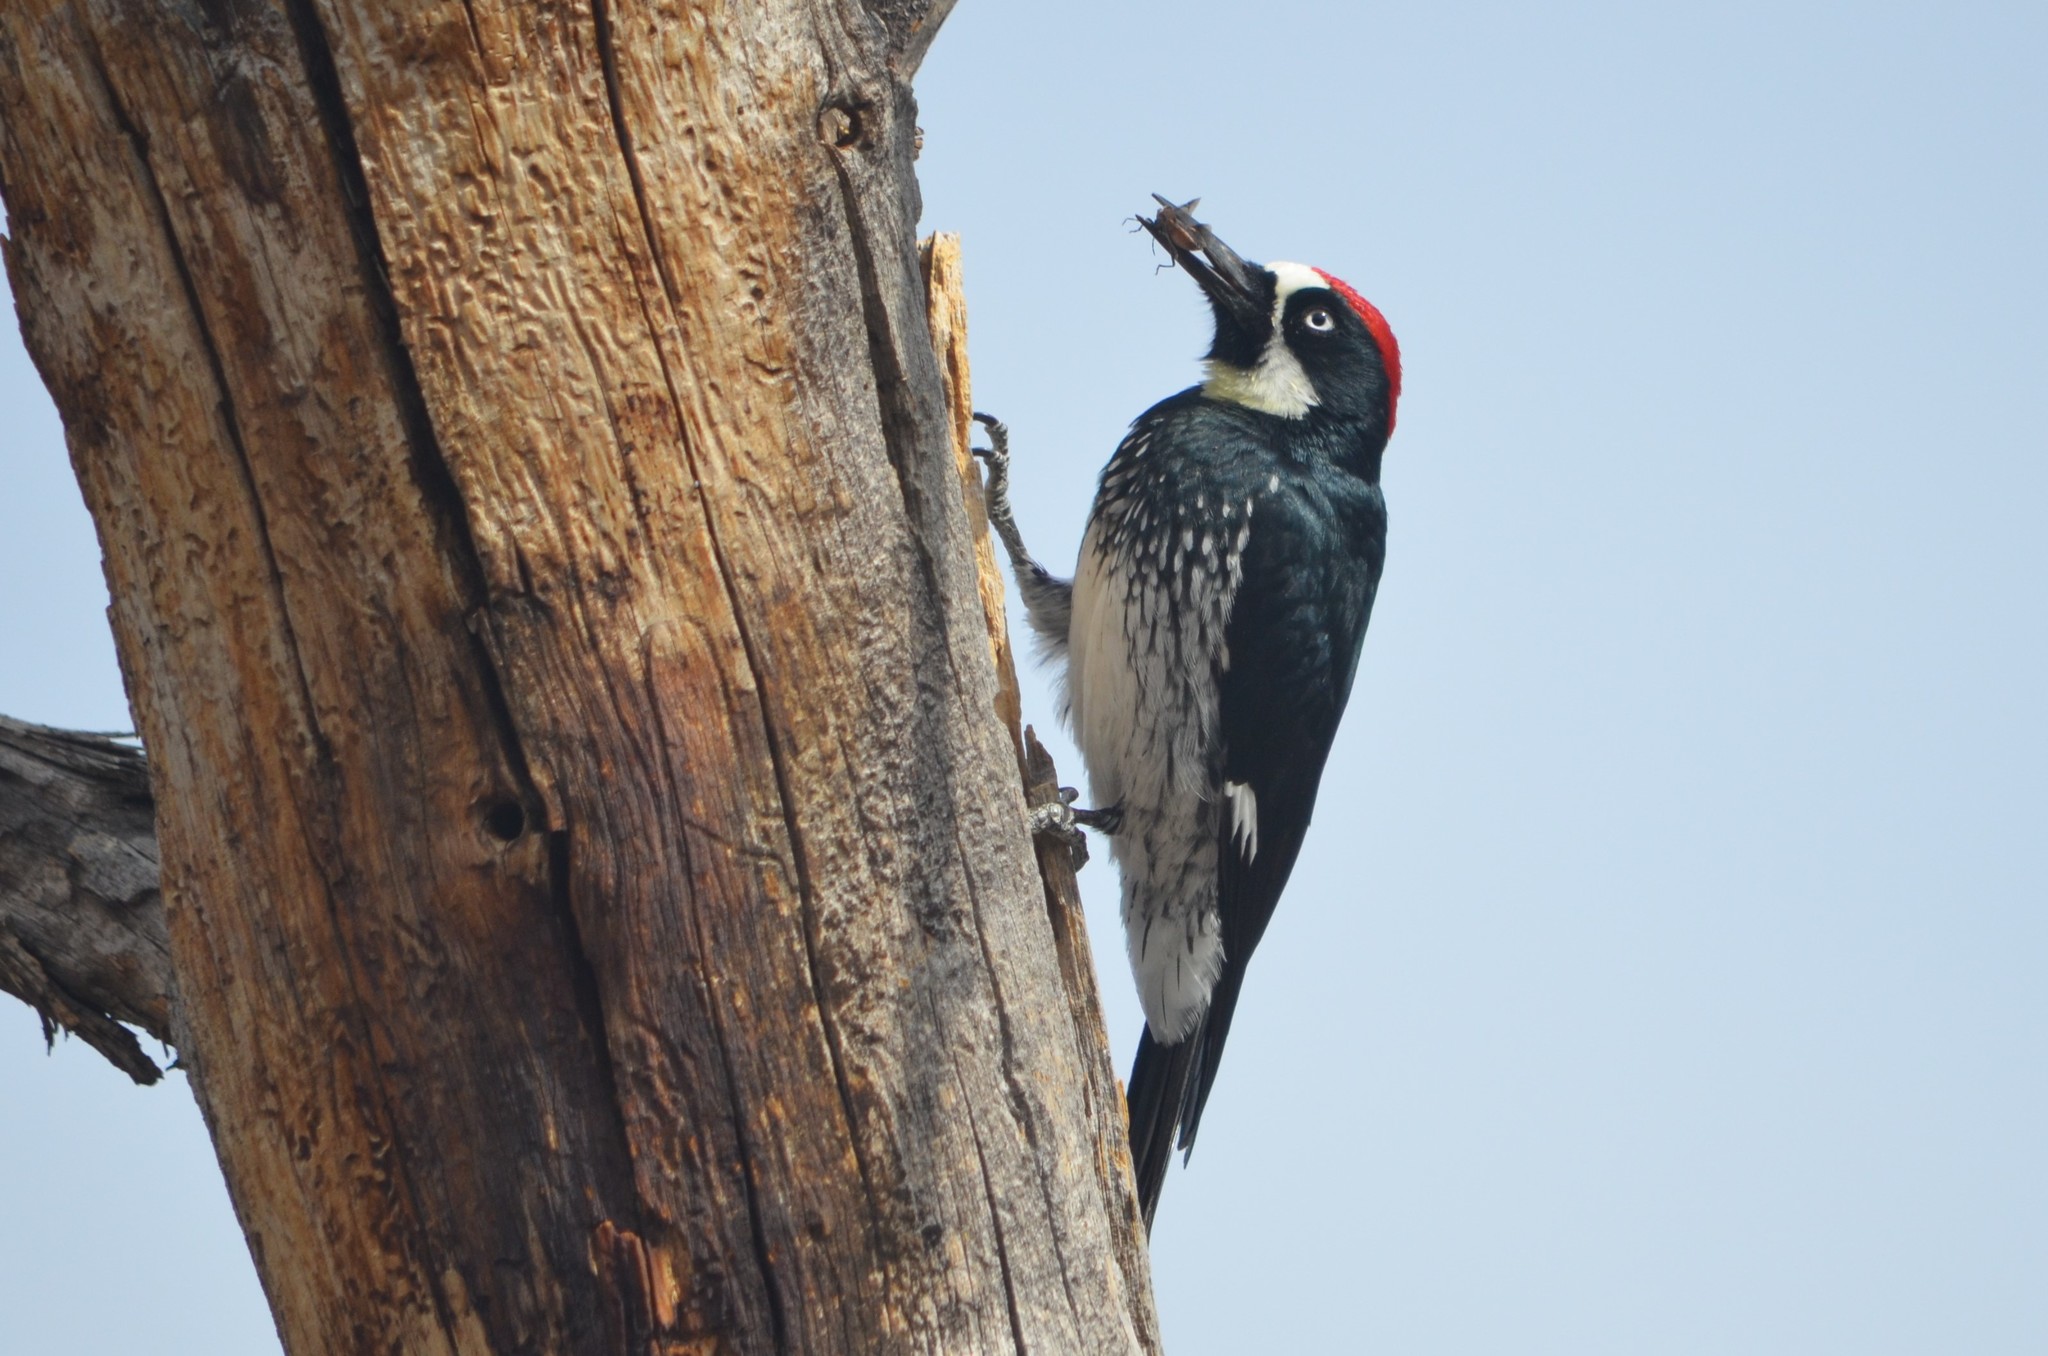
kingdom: Animalia
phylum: Chordata
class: Aves
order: Piciformes
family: Picidae
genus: Melanerpes
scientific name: Melanerpes formicivorus
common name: Acorn woodpecker
